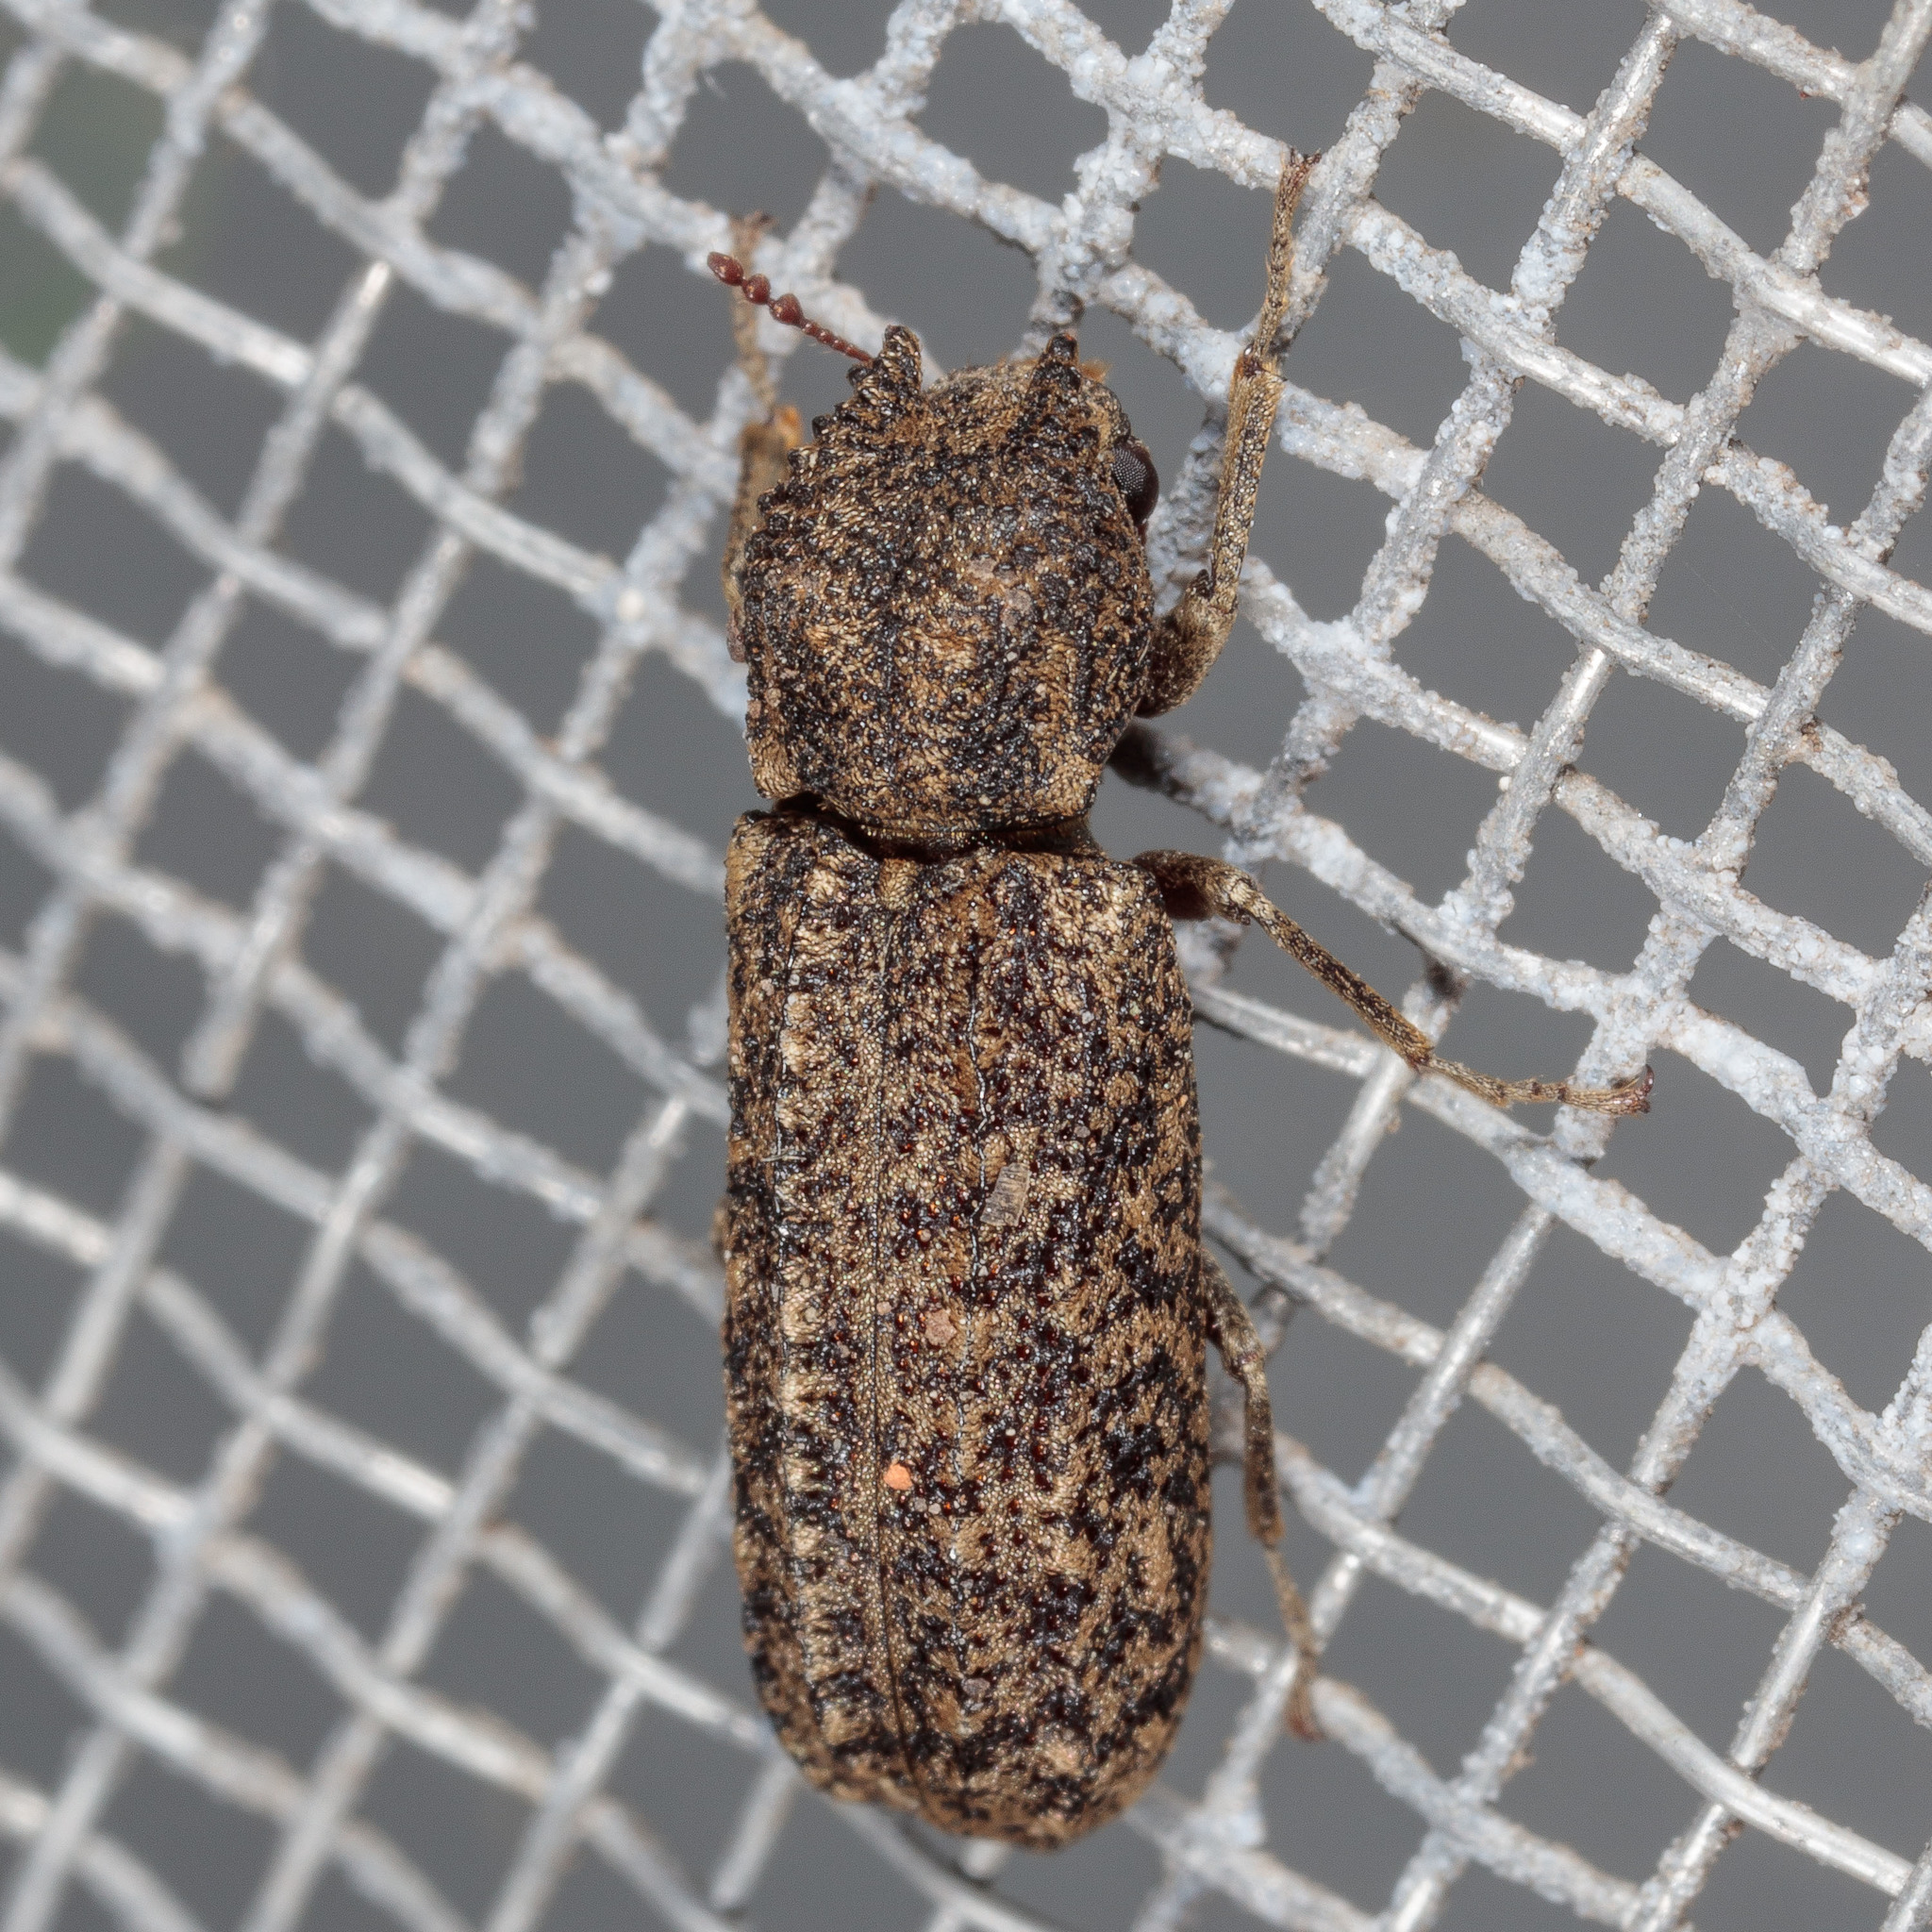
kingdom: Animalia
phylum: Arthropoda
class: Insecta
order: Coleoptera
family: Bostrichidae
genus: Lichenophanes
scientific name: Lichenophanes bicornis
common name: Two-horned powder-post beetle
